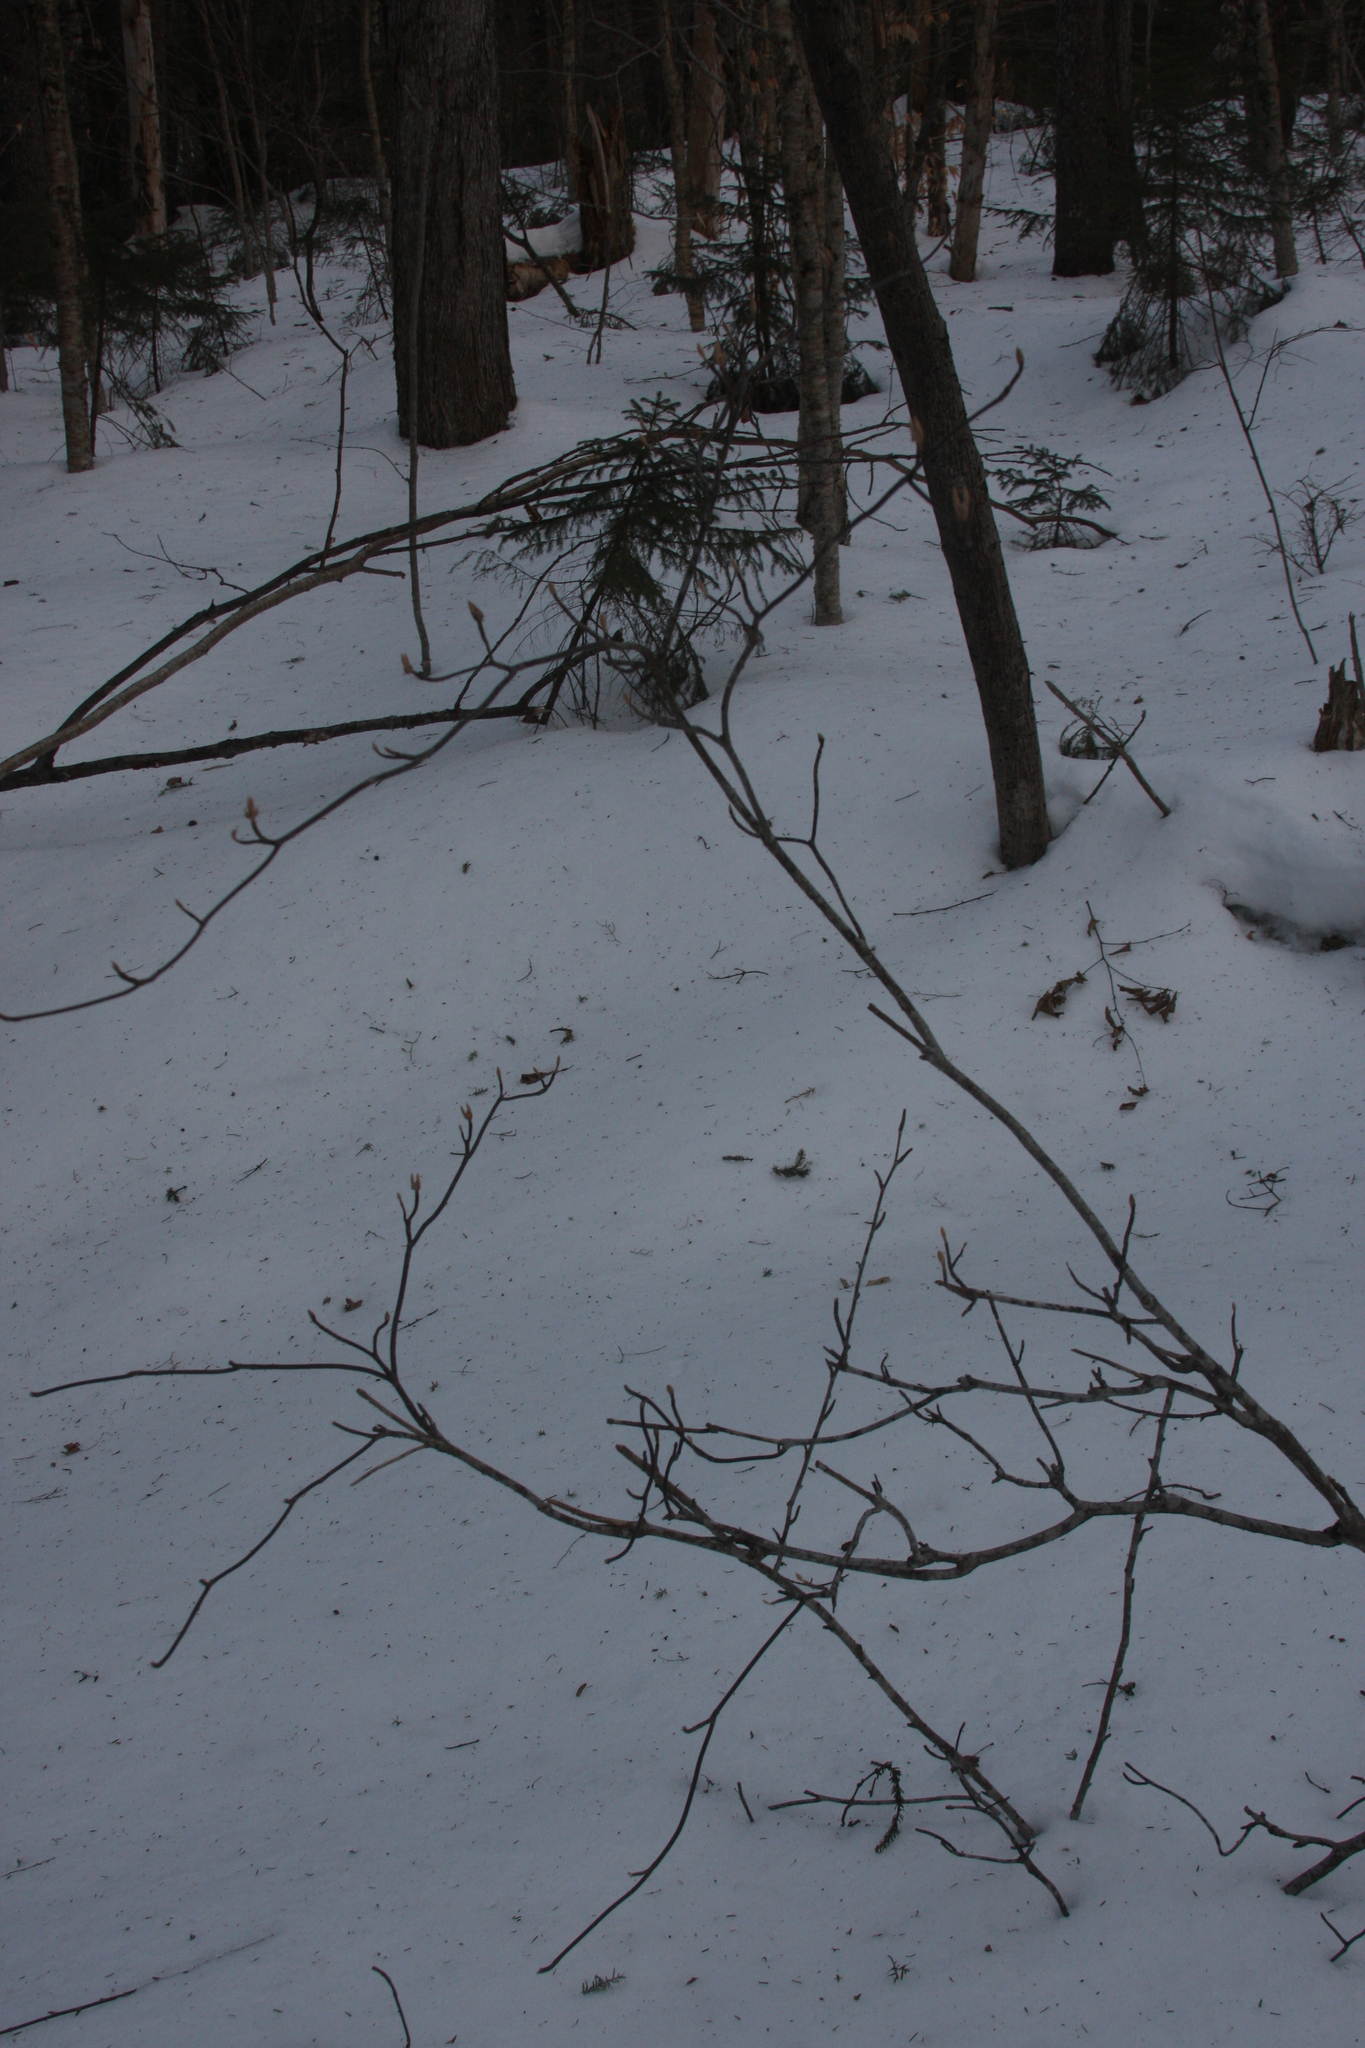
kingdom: Plantae
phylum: Tracheophyta
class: Magnoliopsida
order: Dipsacales
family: Viburnaceae
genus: Viburnum
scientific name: Viburnum lantanoides
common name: Hobblebush
